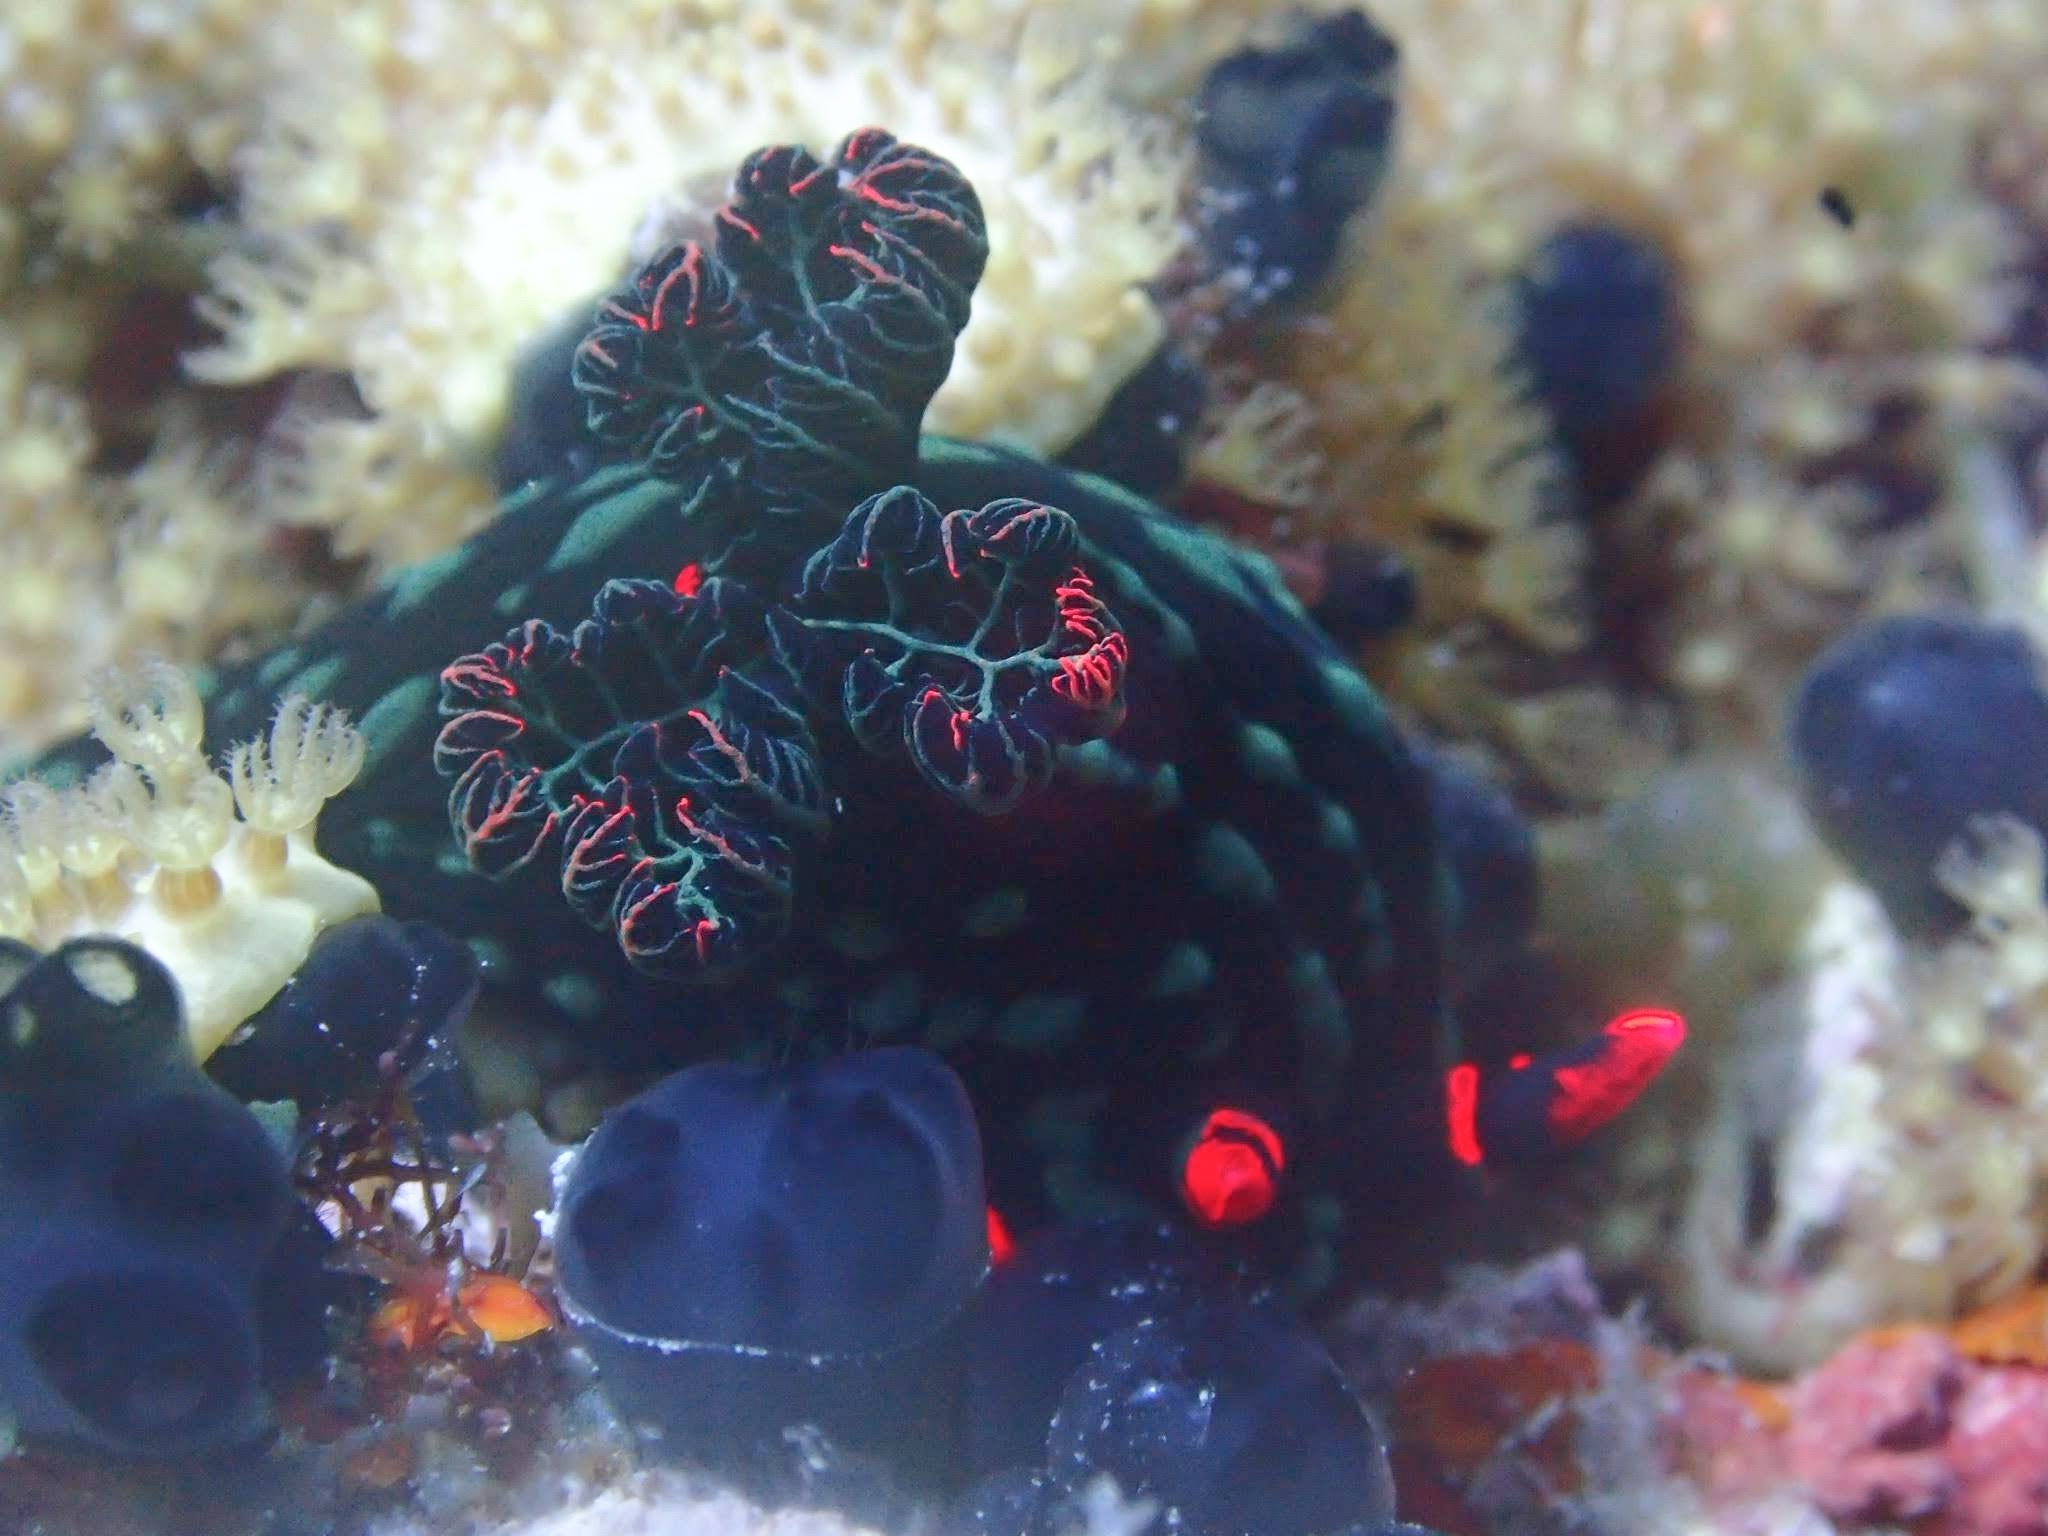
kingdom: Animalia
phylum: Mollusca
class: Gastropoda
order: Nudibranchia
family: Polyceridae
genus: Nembrotha
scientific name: Nembrotha kubaryana
